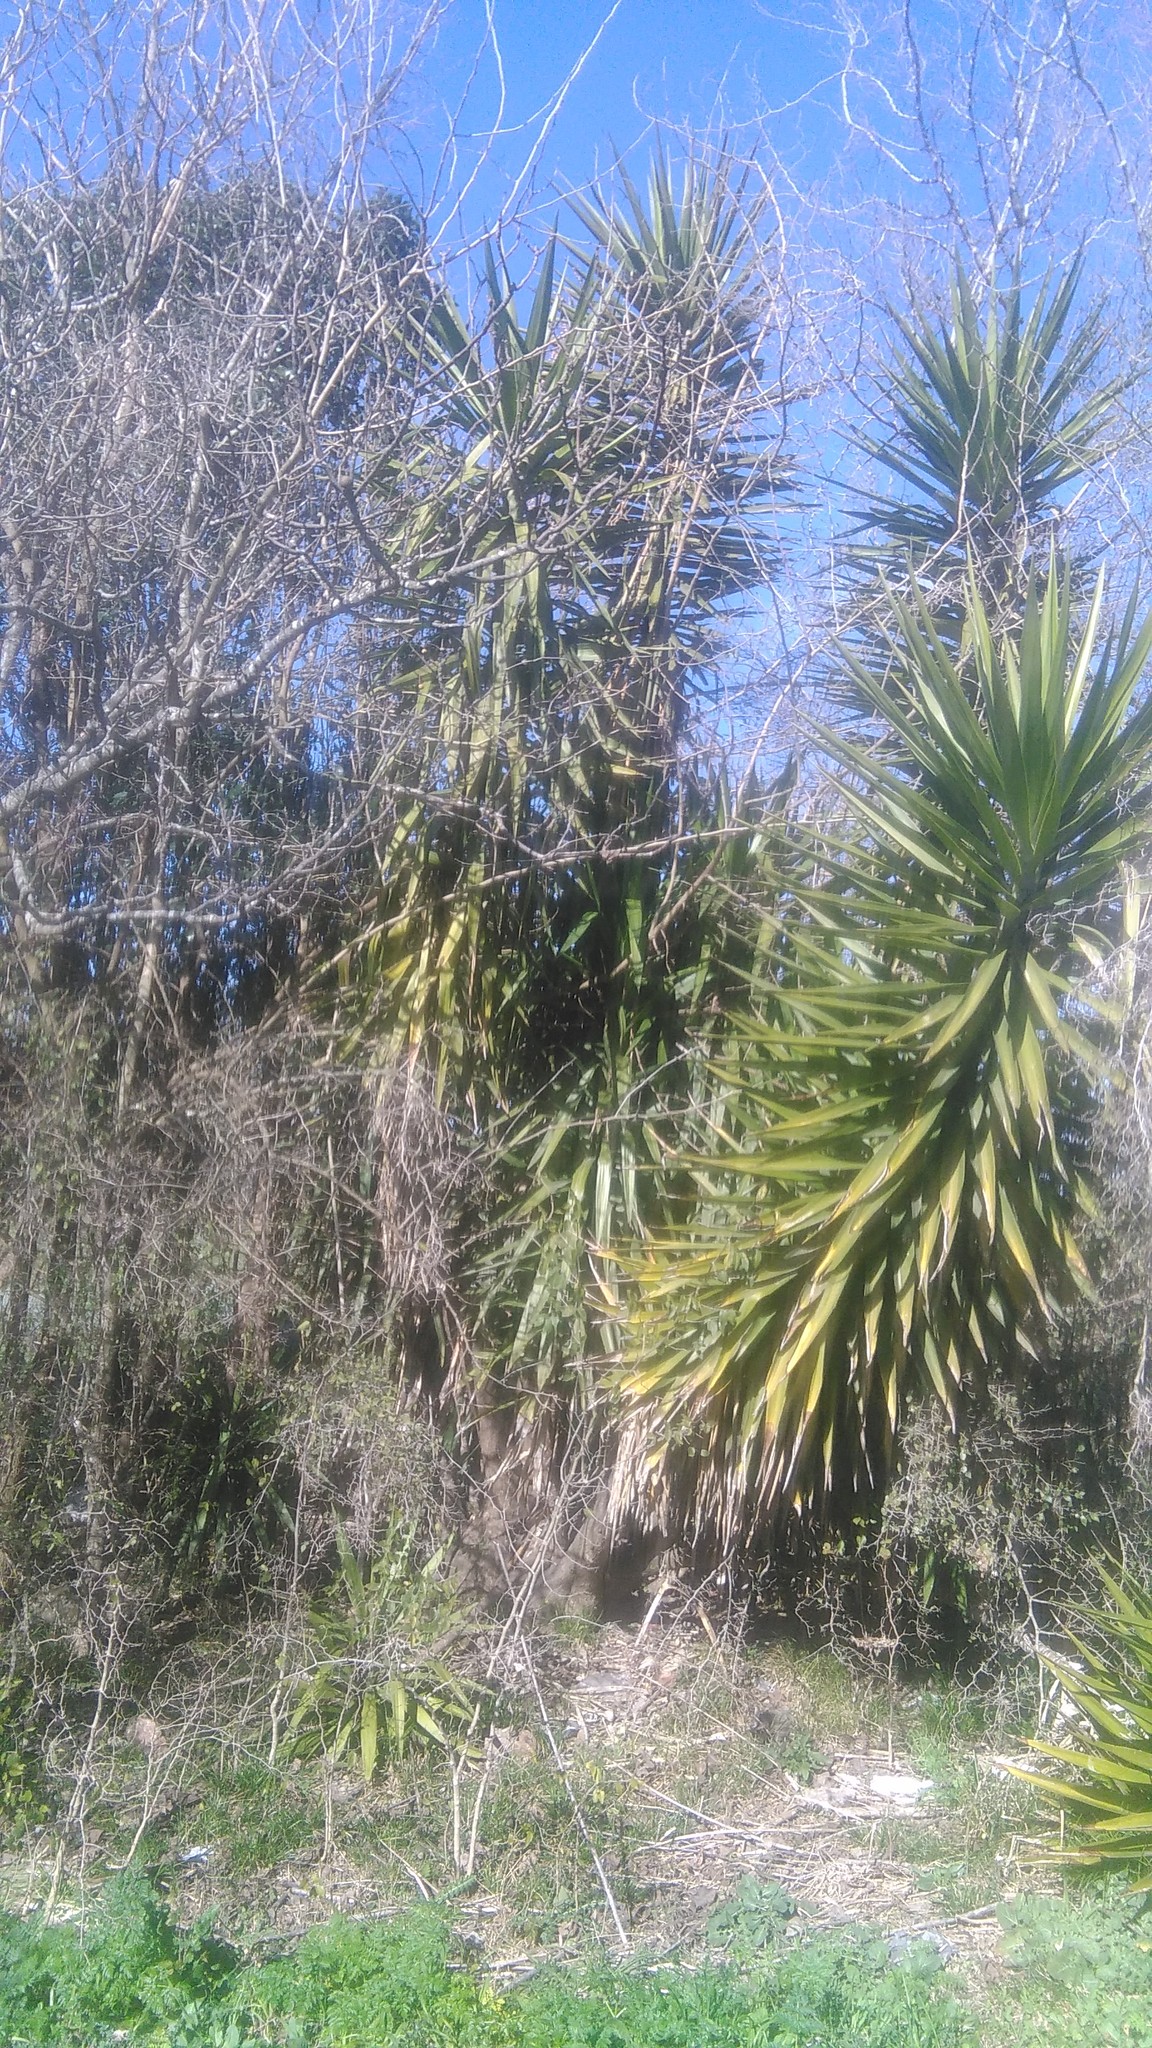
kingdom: Plantae
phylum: Tracheophyta
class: Liliopsida
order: Asparagales
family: Asparagaceae
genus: Yucca
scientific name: Yucca gigantea
